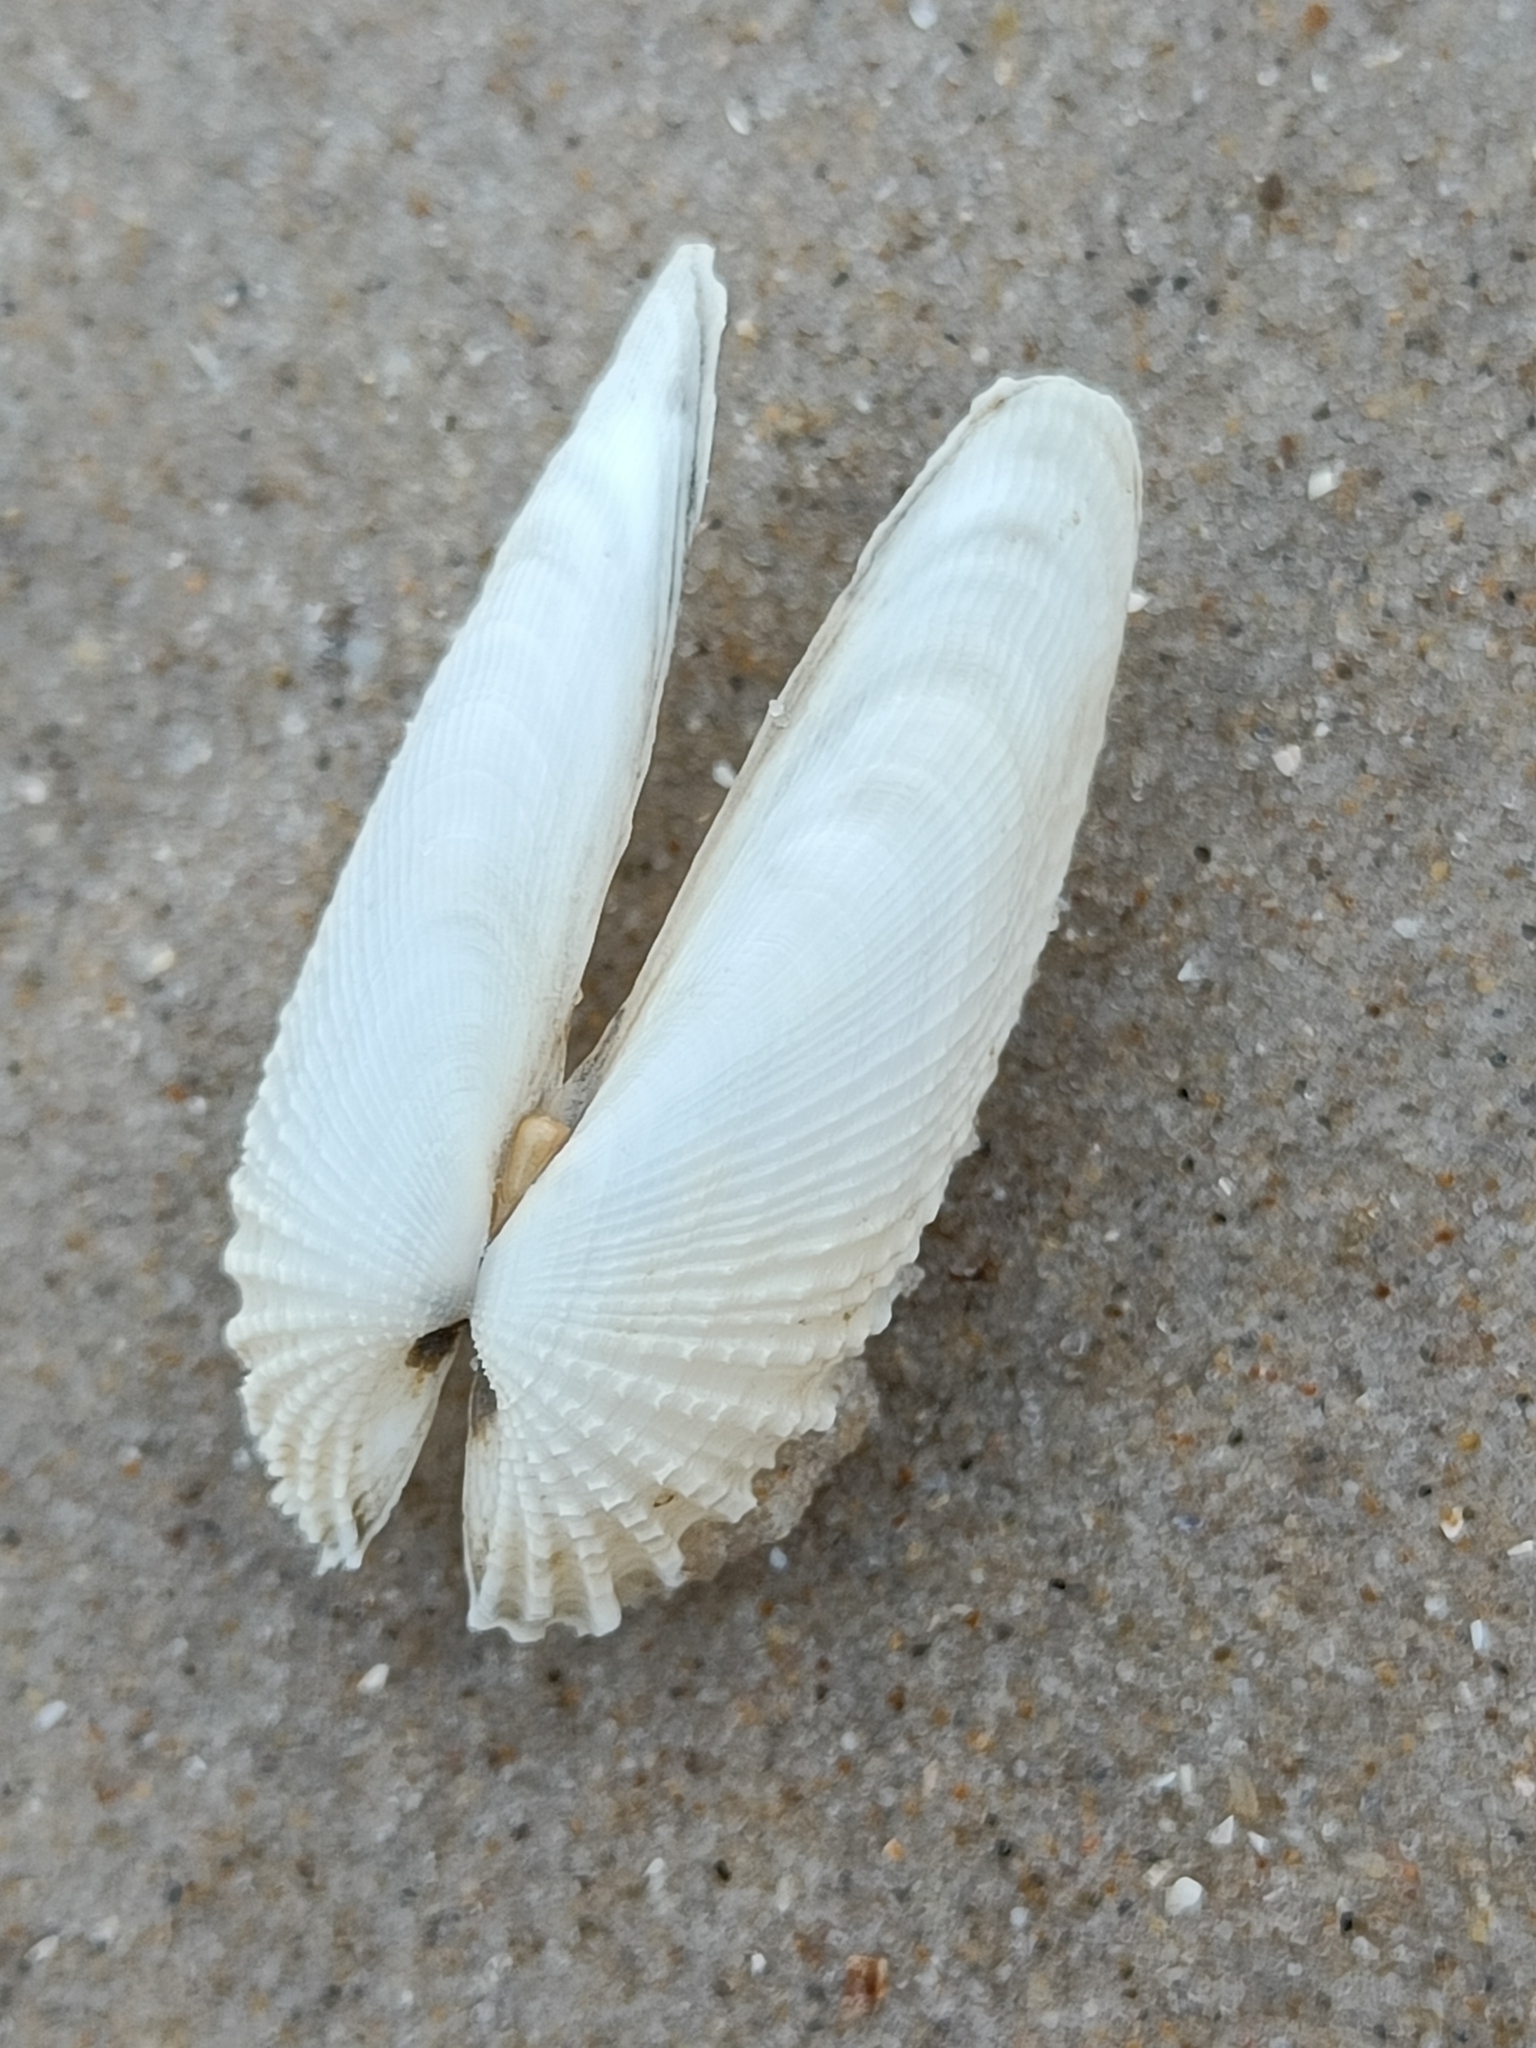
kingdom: Animalia
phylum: Mollusca
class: Bivalvia
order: Venerida
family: Veneridae
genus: Petricolaria
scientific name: Petricolaria pholadiformis
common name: American piddock
